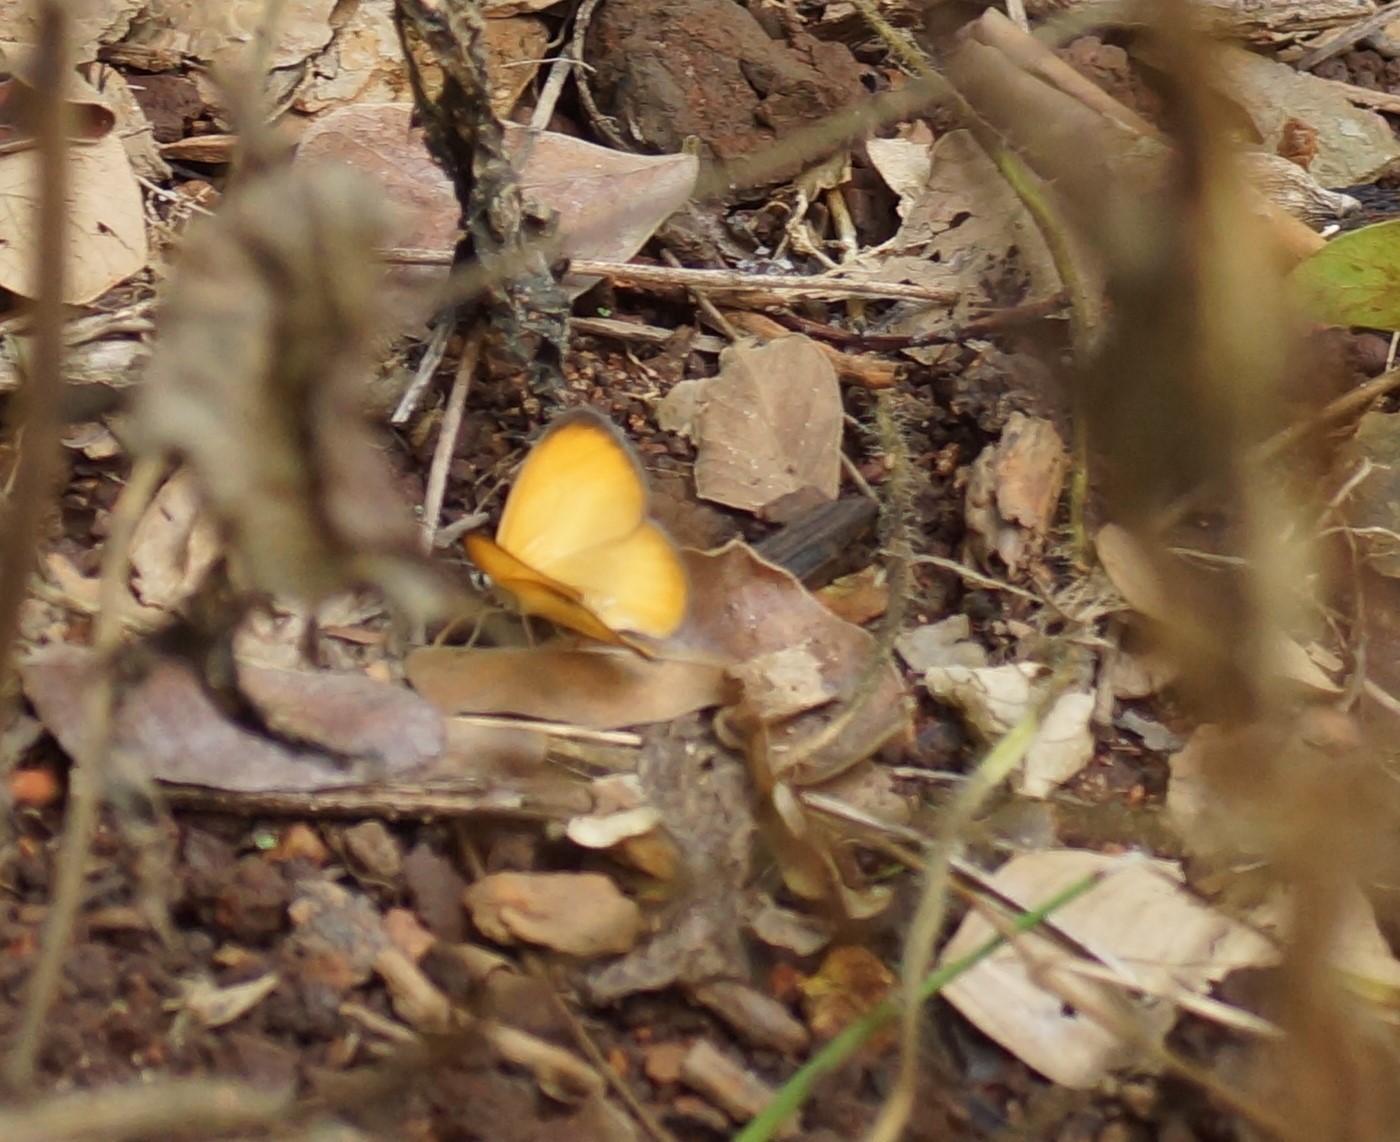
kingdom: Animalia
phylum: Arthropoda
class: Insecta
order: Lepidoptera
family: Nymphalidae
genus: Hypocysta
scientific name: Hypocysta adiante
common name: Orange ringlet
